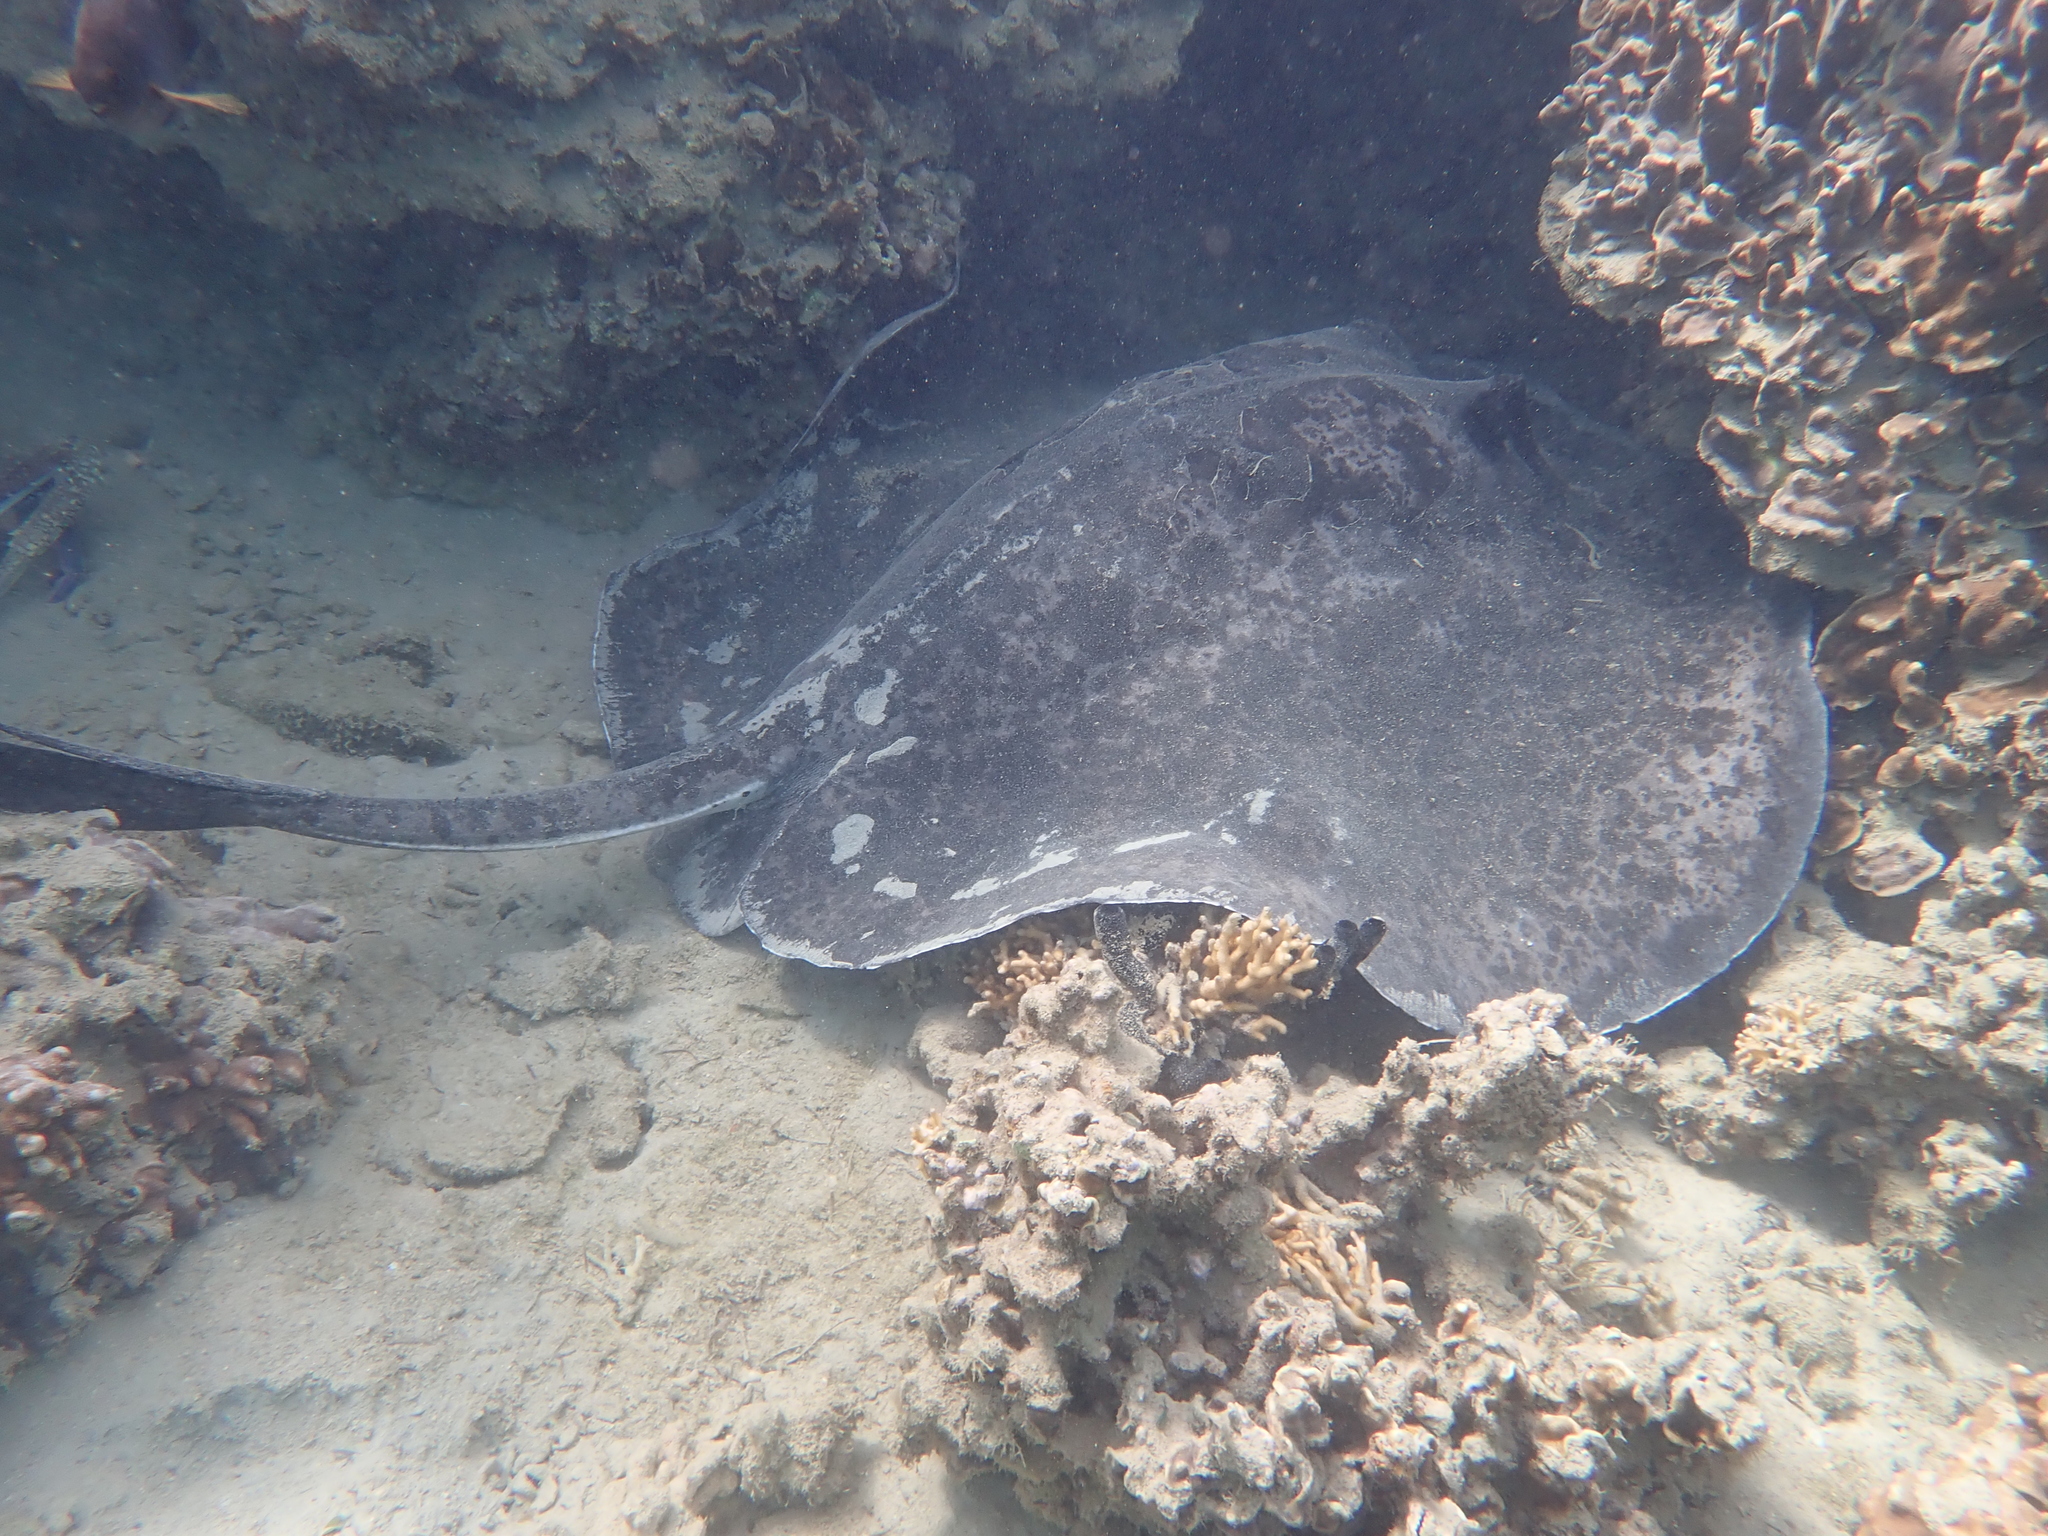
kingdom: Animalia
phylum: Chordata
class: Elasmobranchii
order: Myliobatiformes
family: Dasyatidae
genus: Taeniurops
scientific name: Taeniurops meyeni
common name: Black-blotched stingray
